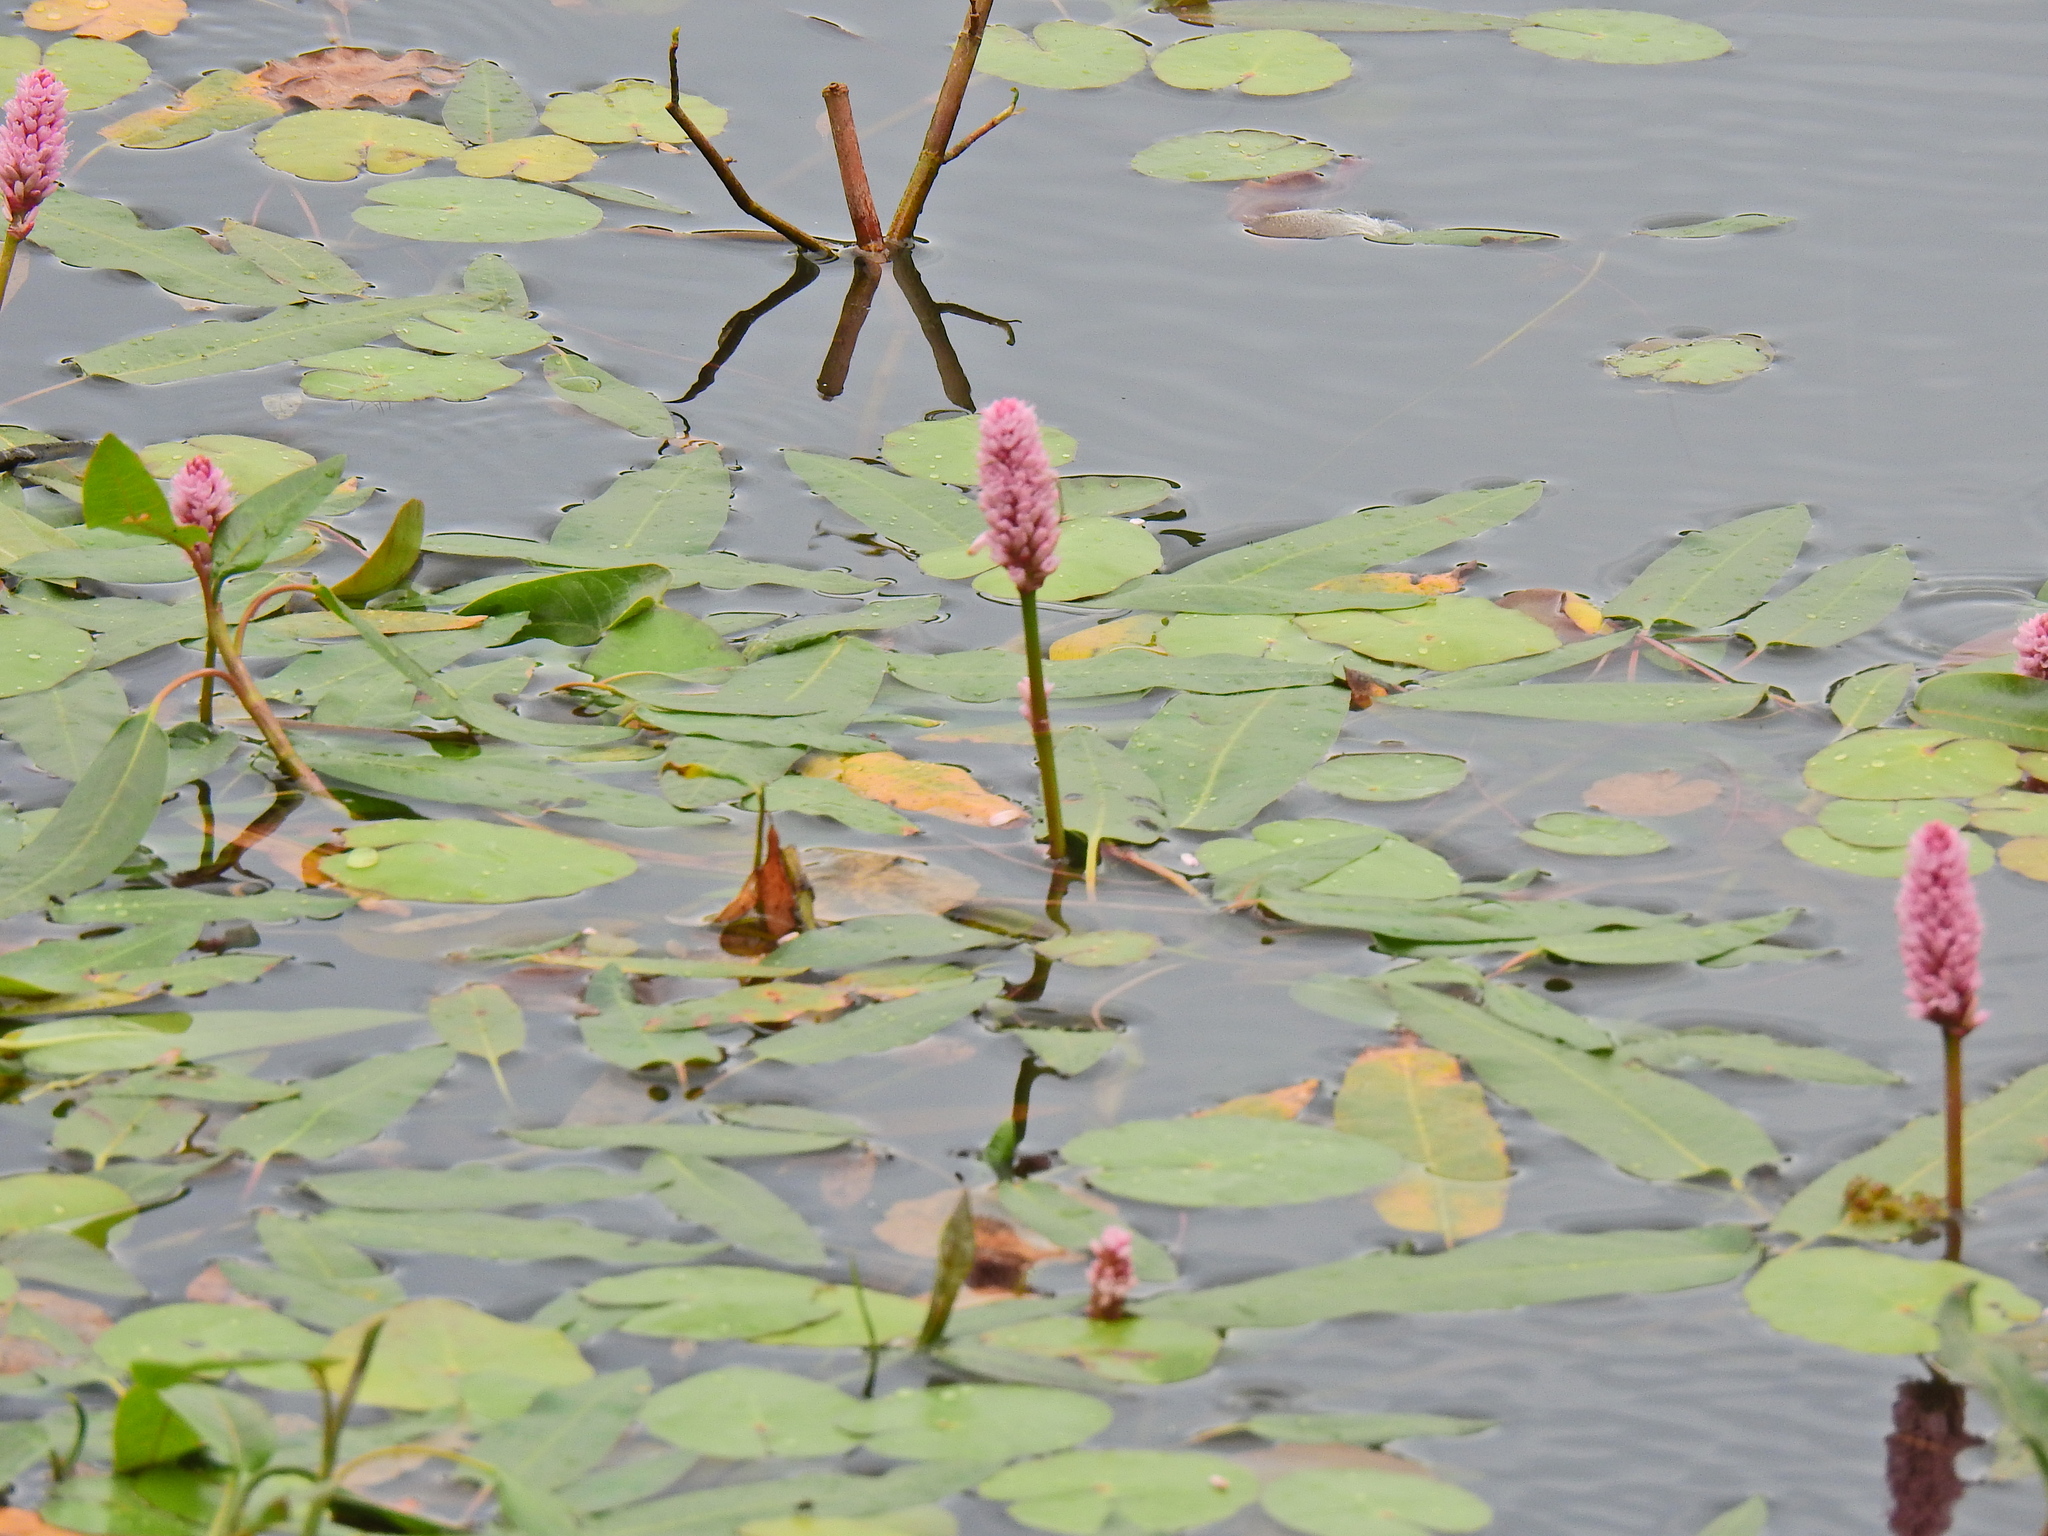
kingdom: Plantae
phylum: Tracheophyta
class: Magnoliopsida
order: Caryophyllales
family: Polygonaceae
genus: Persicaria
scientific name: Persicaria amphibia
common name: Amphibious bistort
